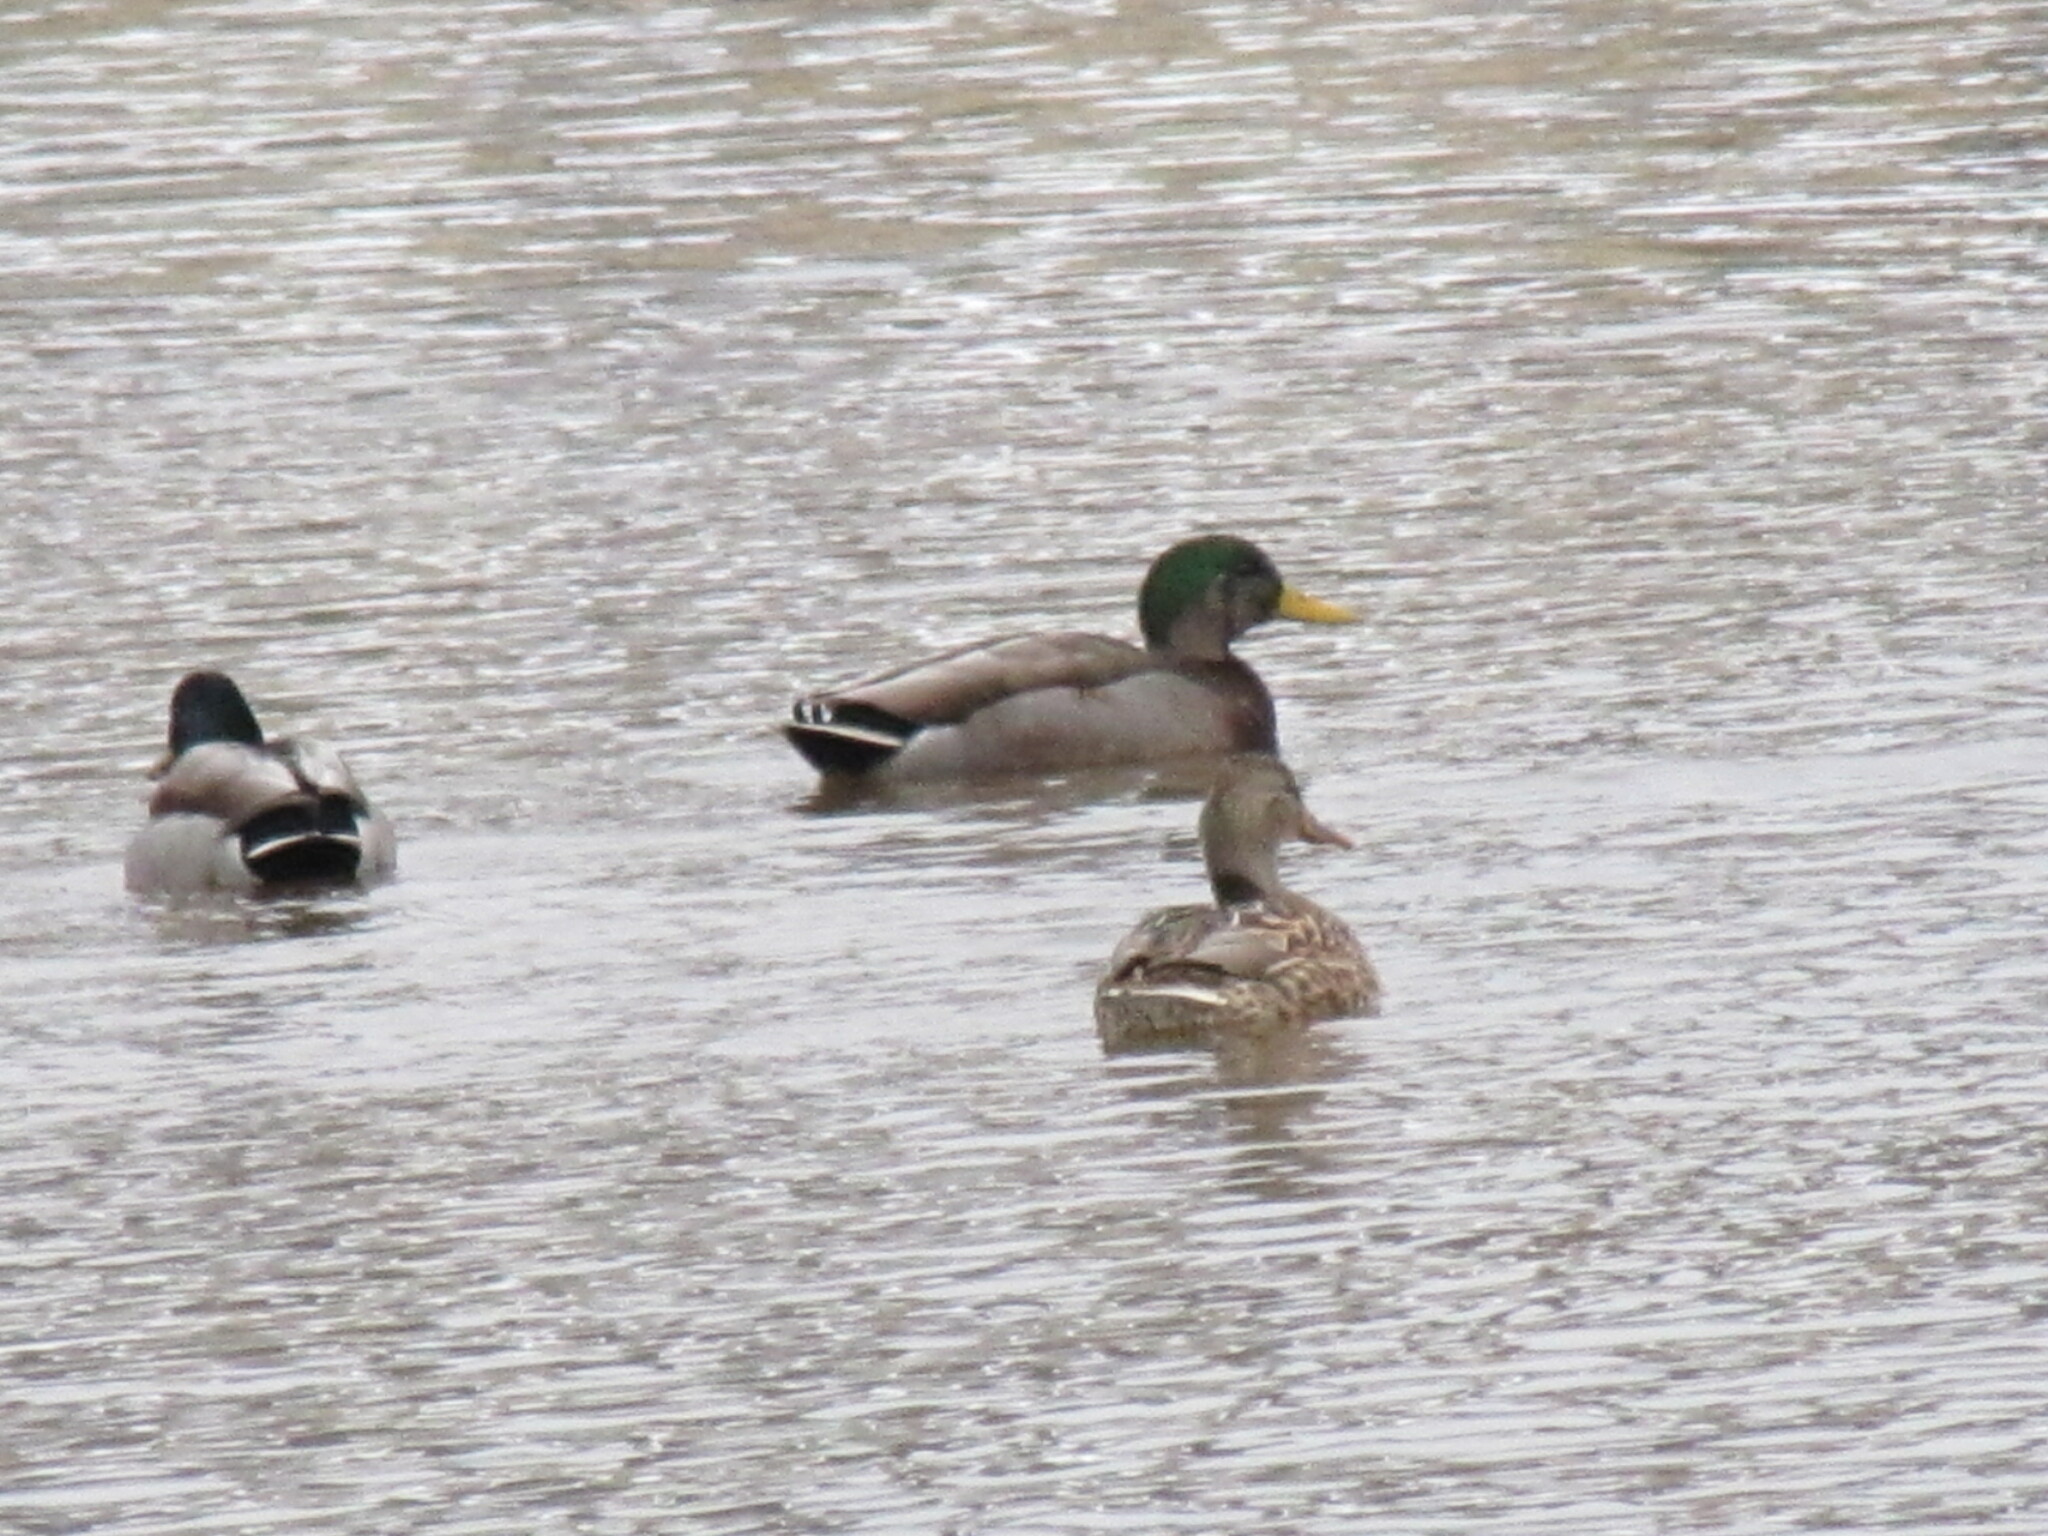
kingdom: Animalia
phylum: Chordata
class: Aves
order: Anseriformes
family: Anatidae
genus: Anas
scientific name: Anas
